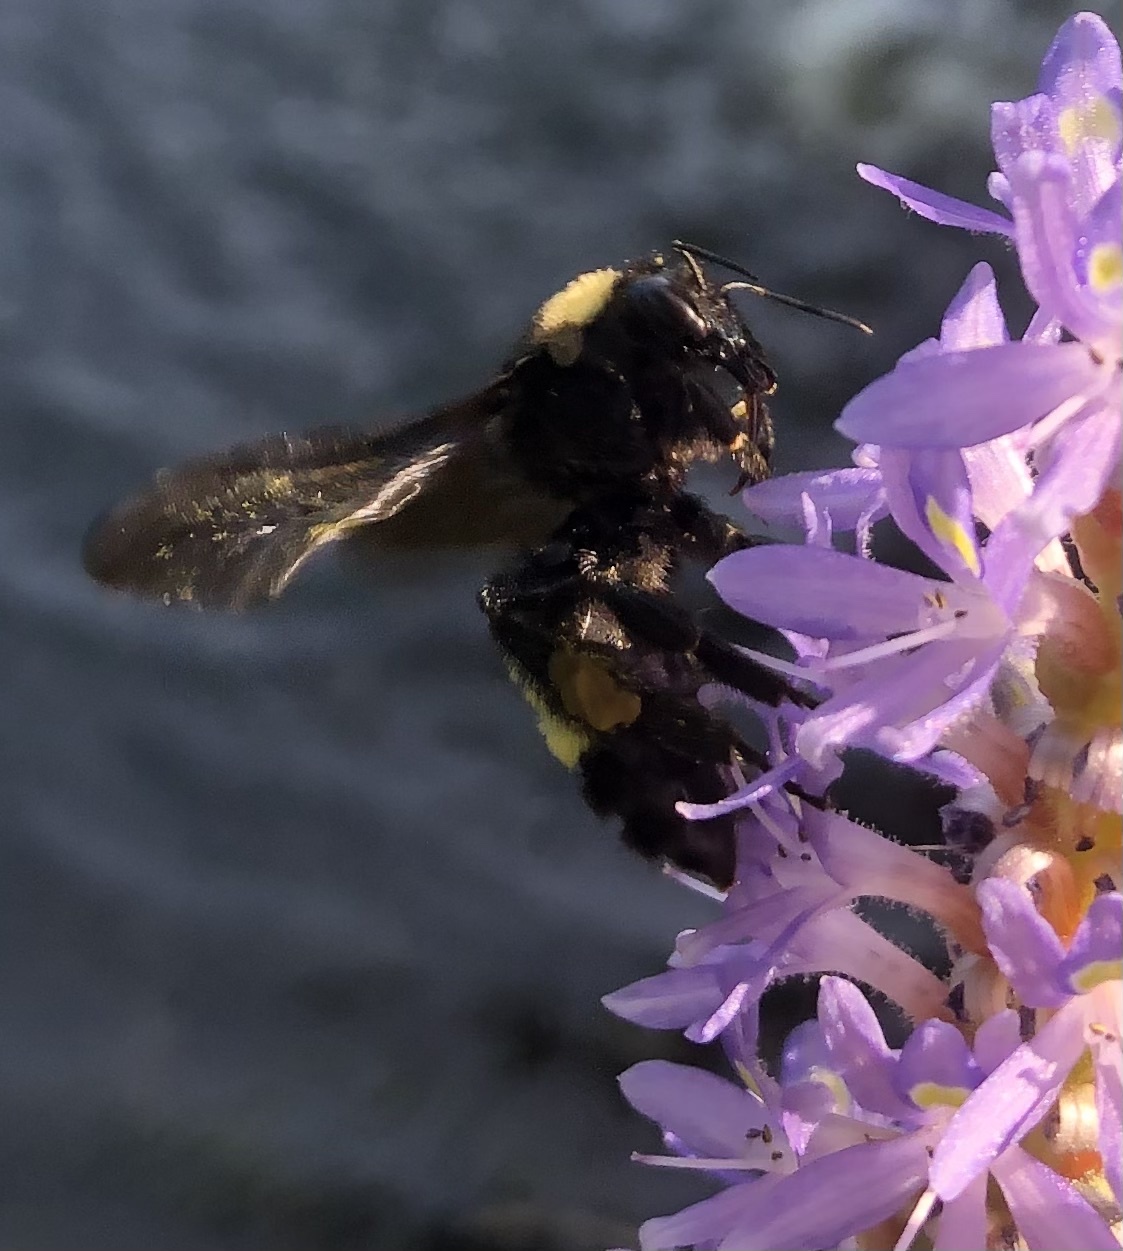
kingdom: Animalia
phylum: Arthropoda
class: Insecta
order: Hymenoptera
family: Apidae
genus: Bombus
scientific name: Bombus pensylvanicus
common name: Bumble bee
